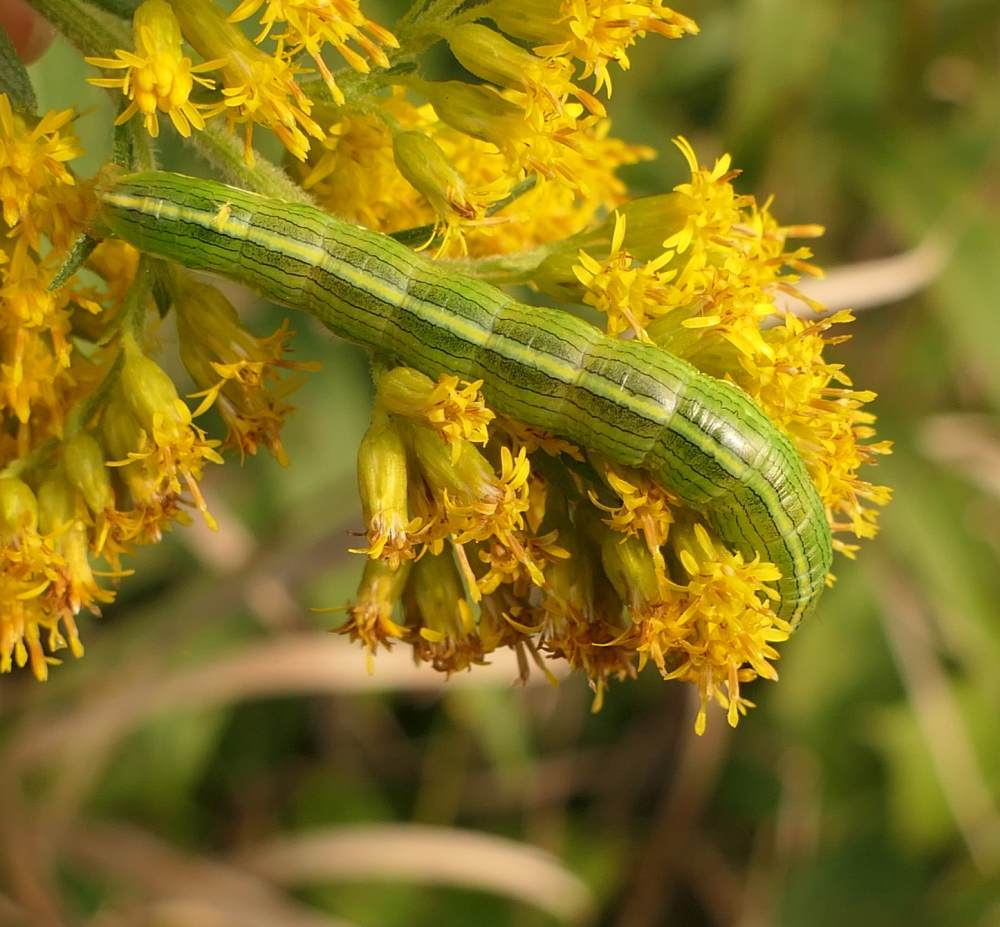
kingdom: Animalia
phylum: Arthropoda
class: Insecta
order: Lepidoptera
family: Noctuidae
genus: Cucullia
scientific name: Cucullia asteroides
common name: Asteroid moth
